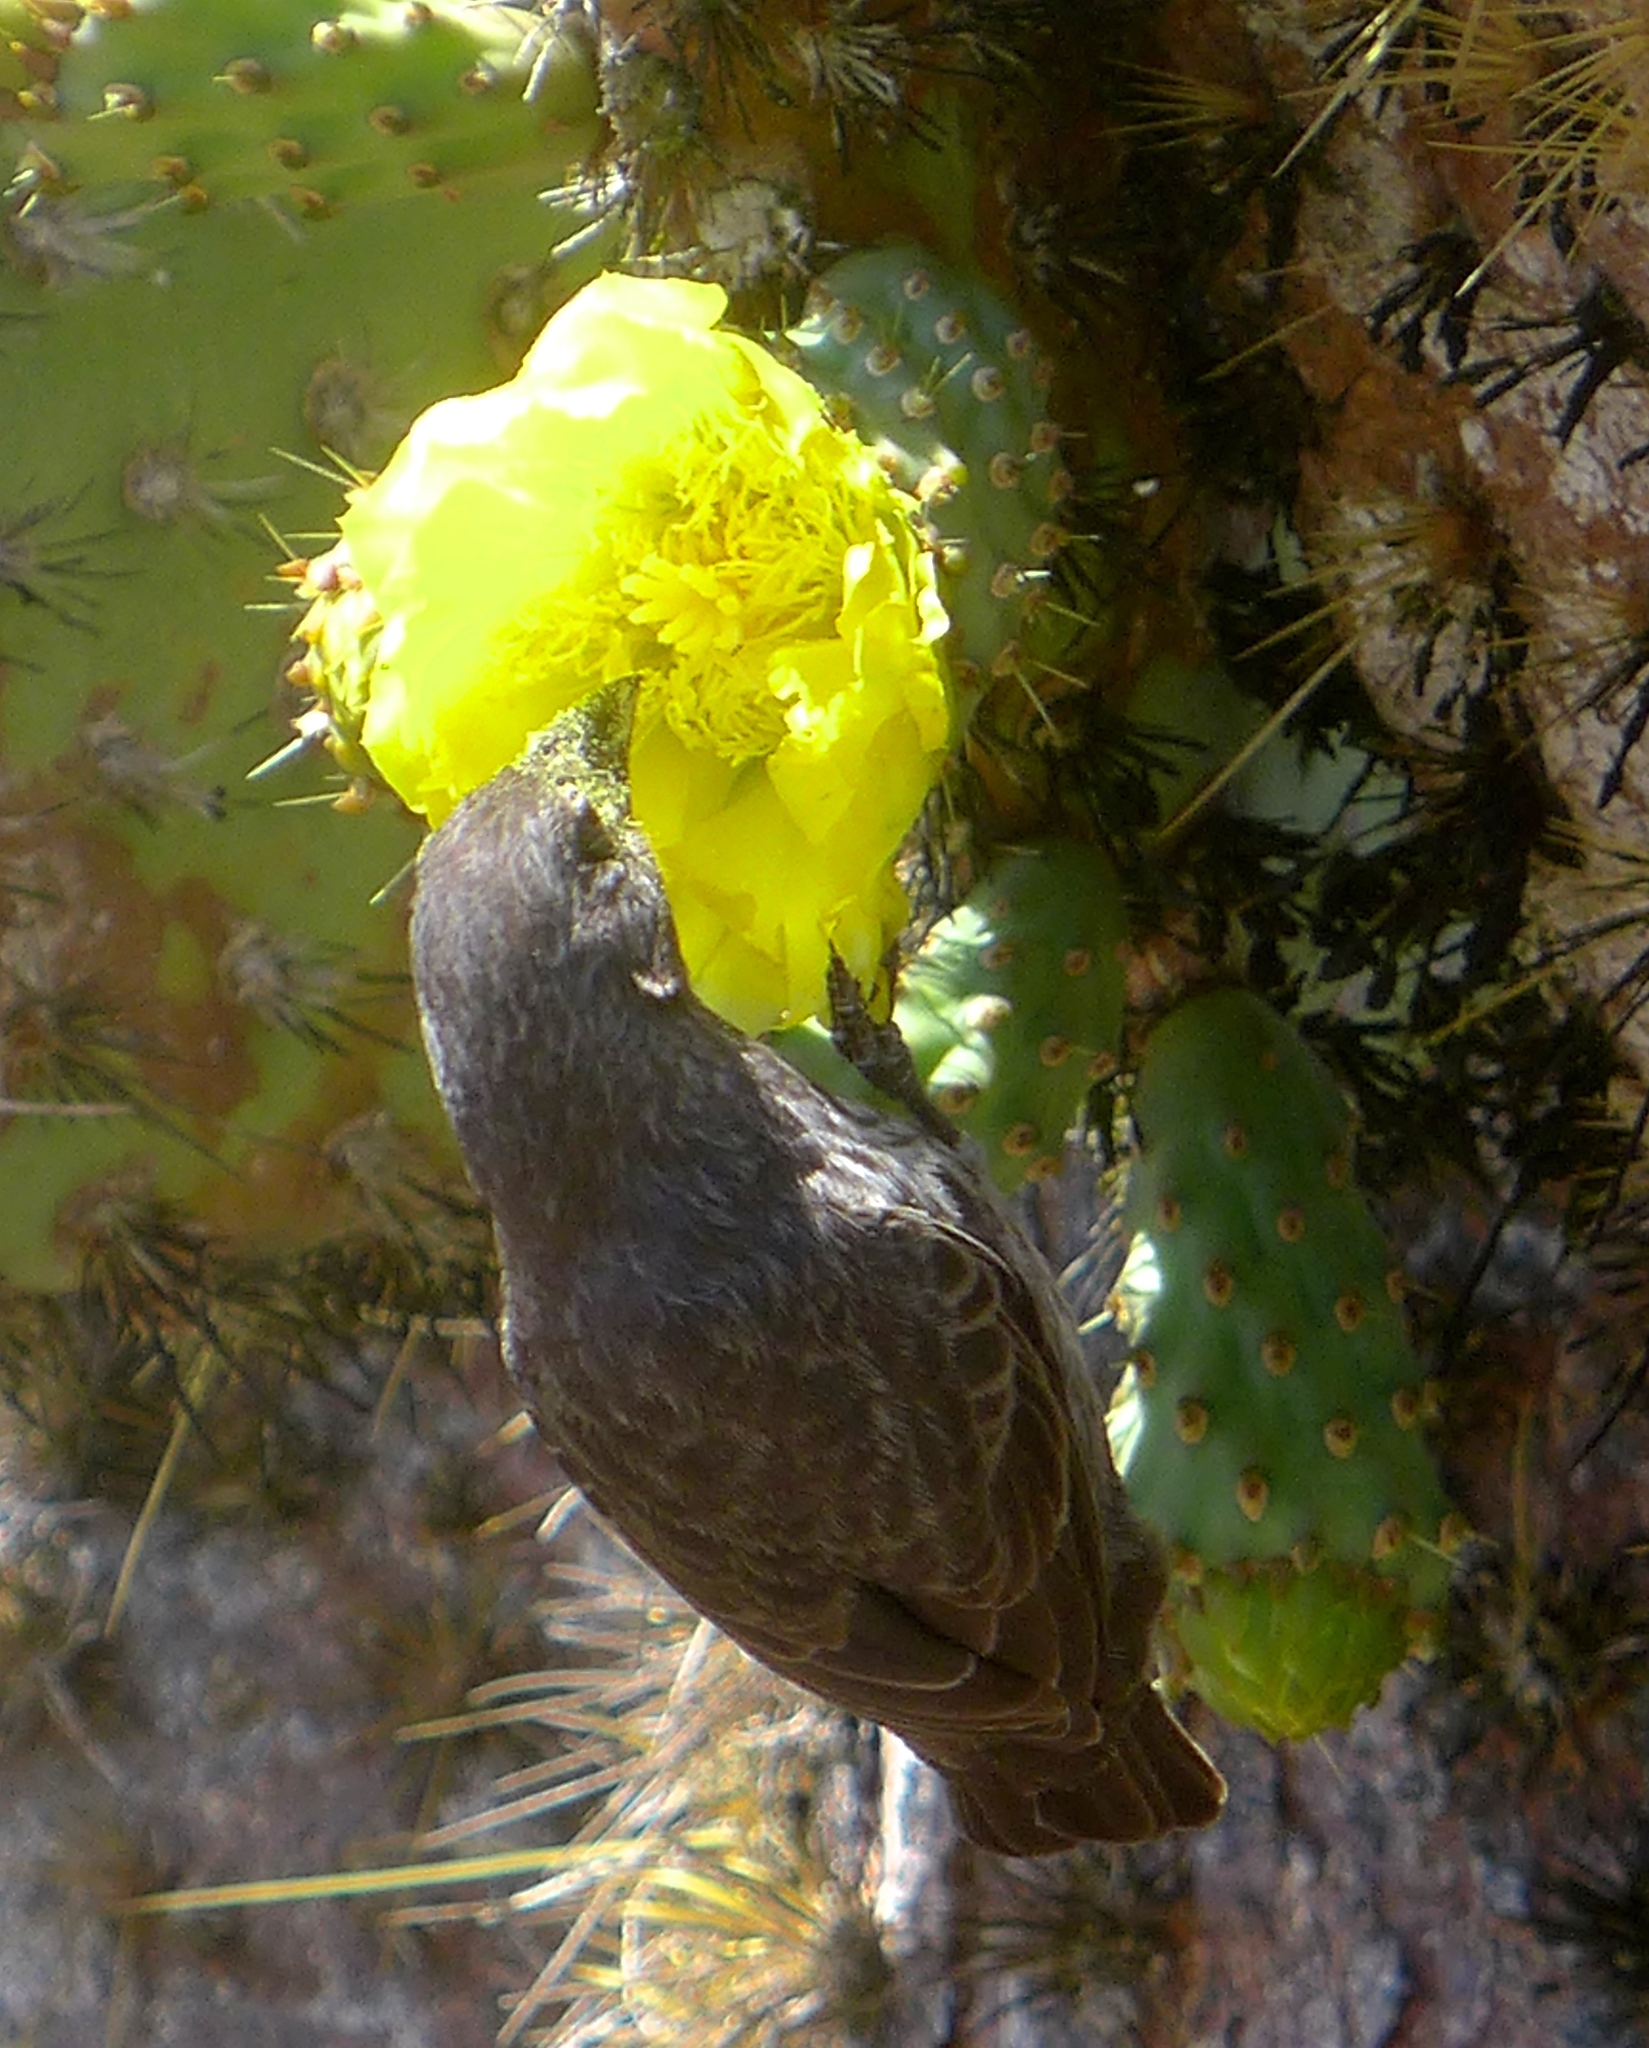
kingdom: Animalia
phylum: Chordata
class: Aves
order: Passeriformes
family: Thraupidae
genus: Geospiza
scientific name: Geospiza scandens
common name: Common cactus-finch
